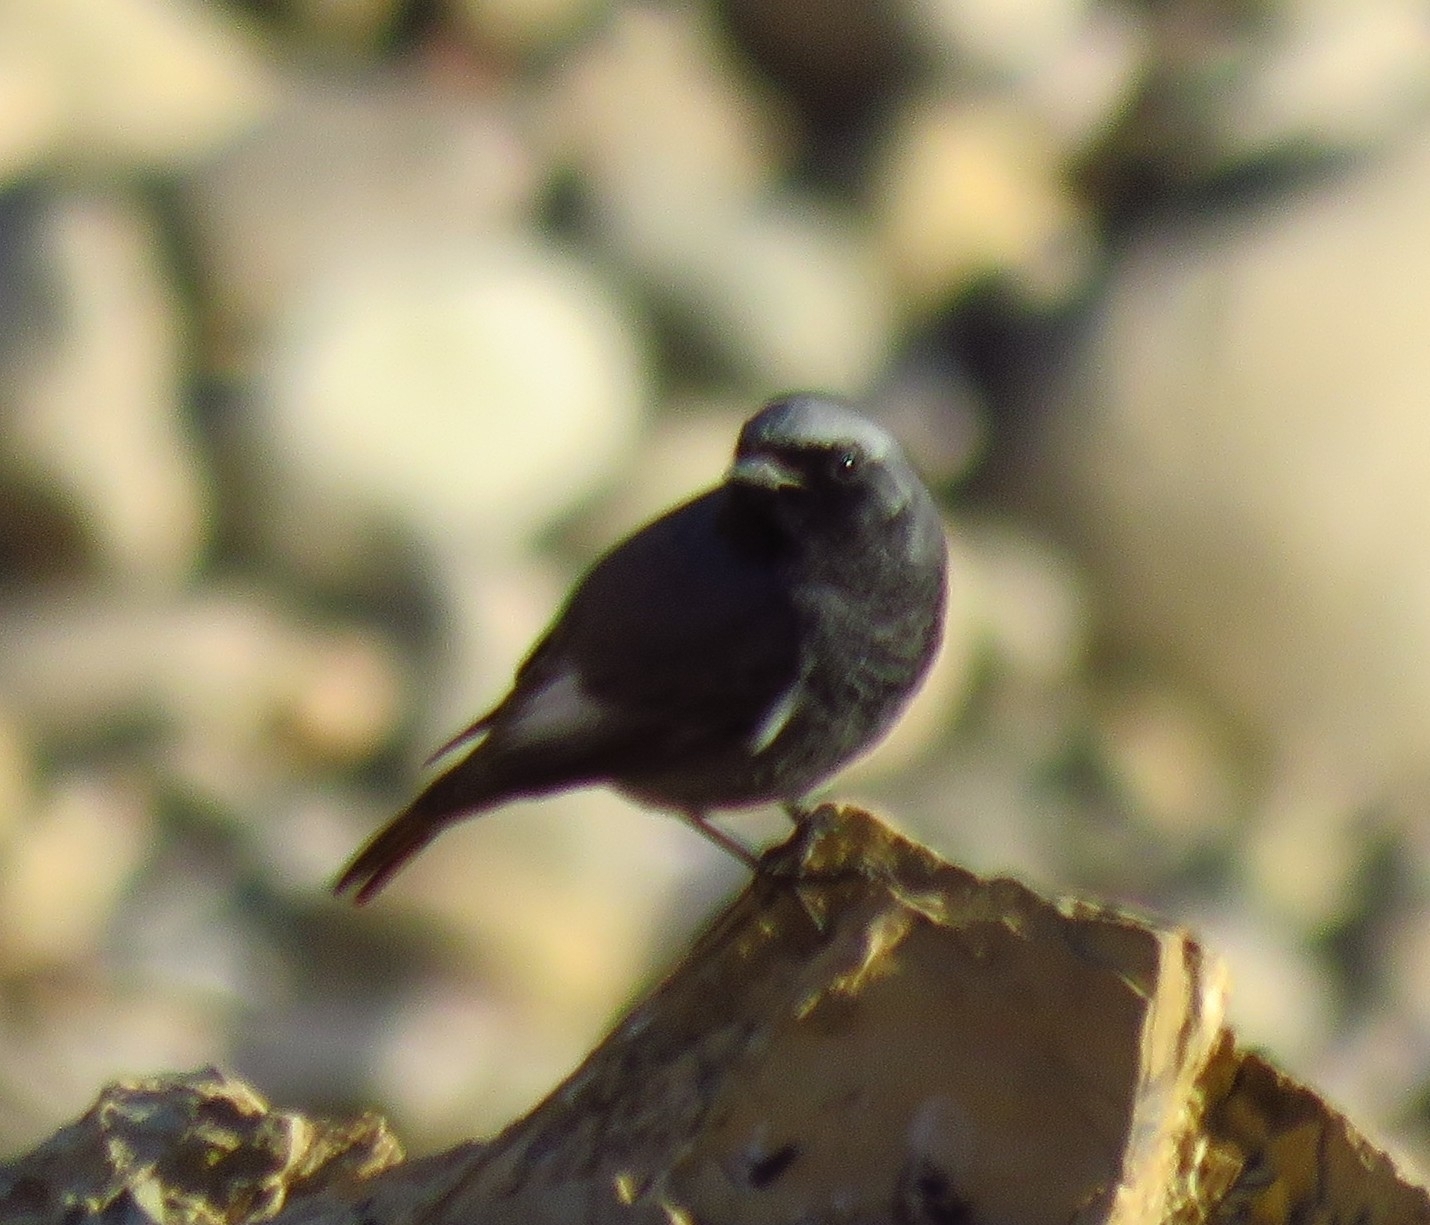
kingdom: Animalia
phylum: Chordata
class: Aves
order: Passeriformes
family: Muscicapidae
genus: Phoenicurus
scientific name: Phoenicurus ochruros
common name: Black redstart
